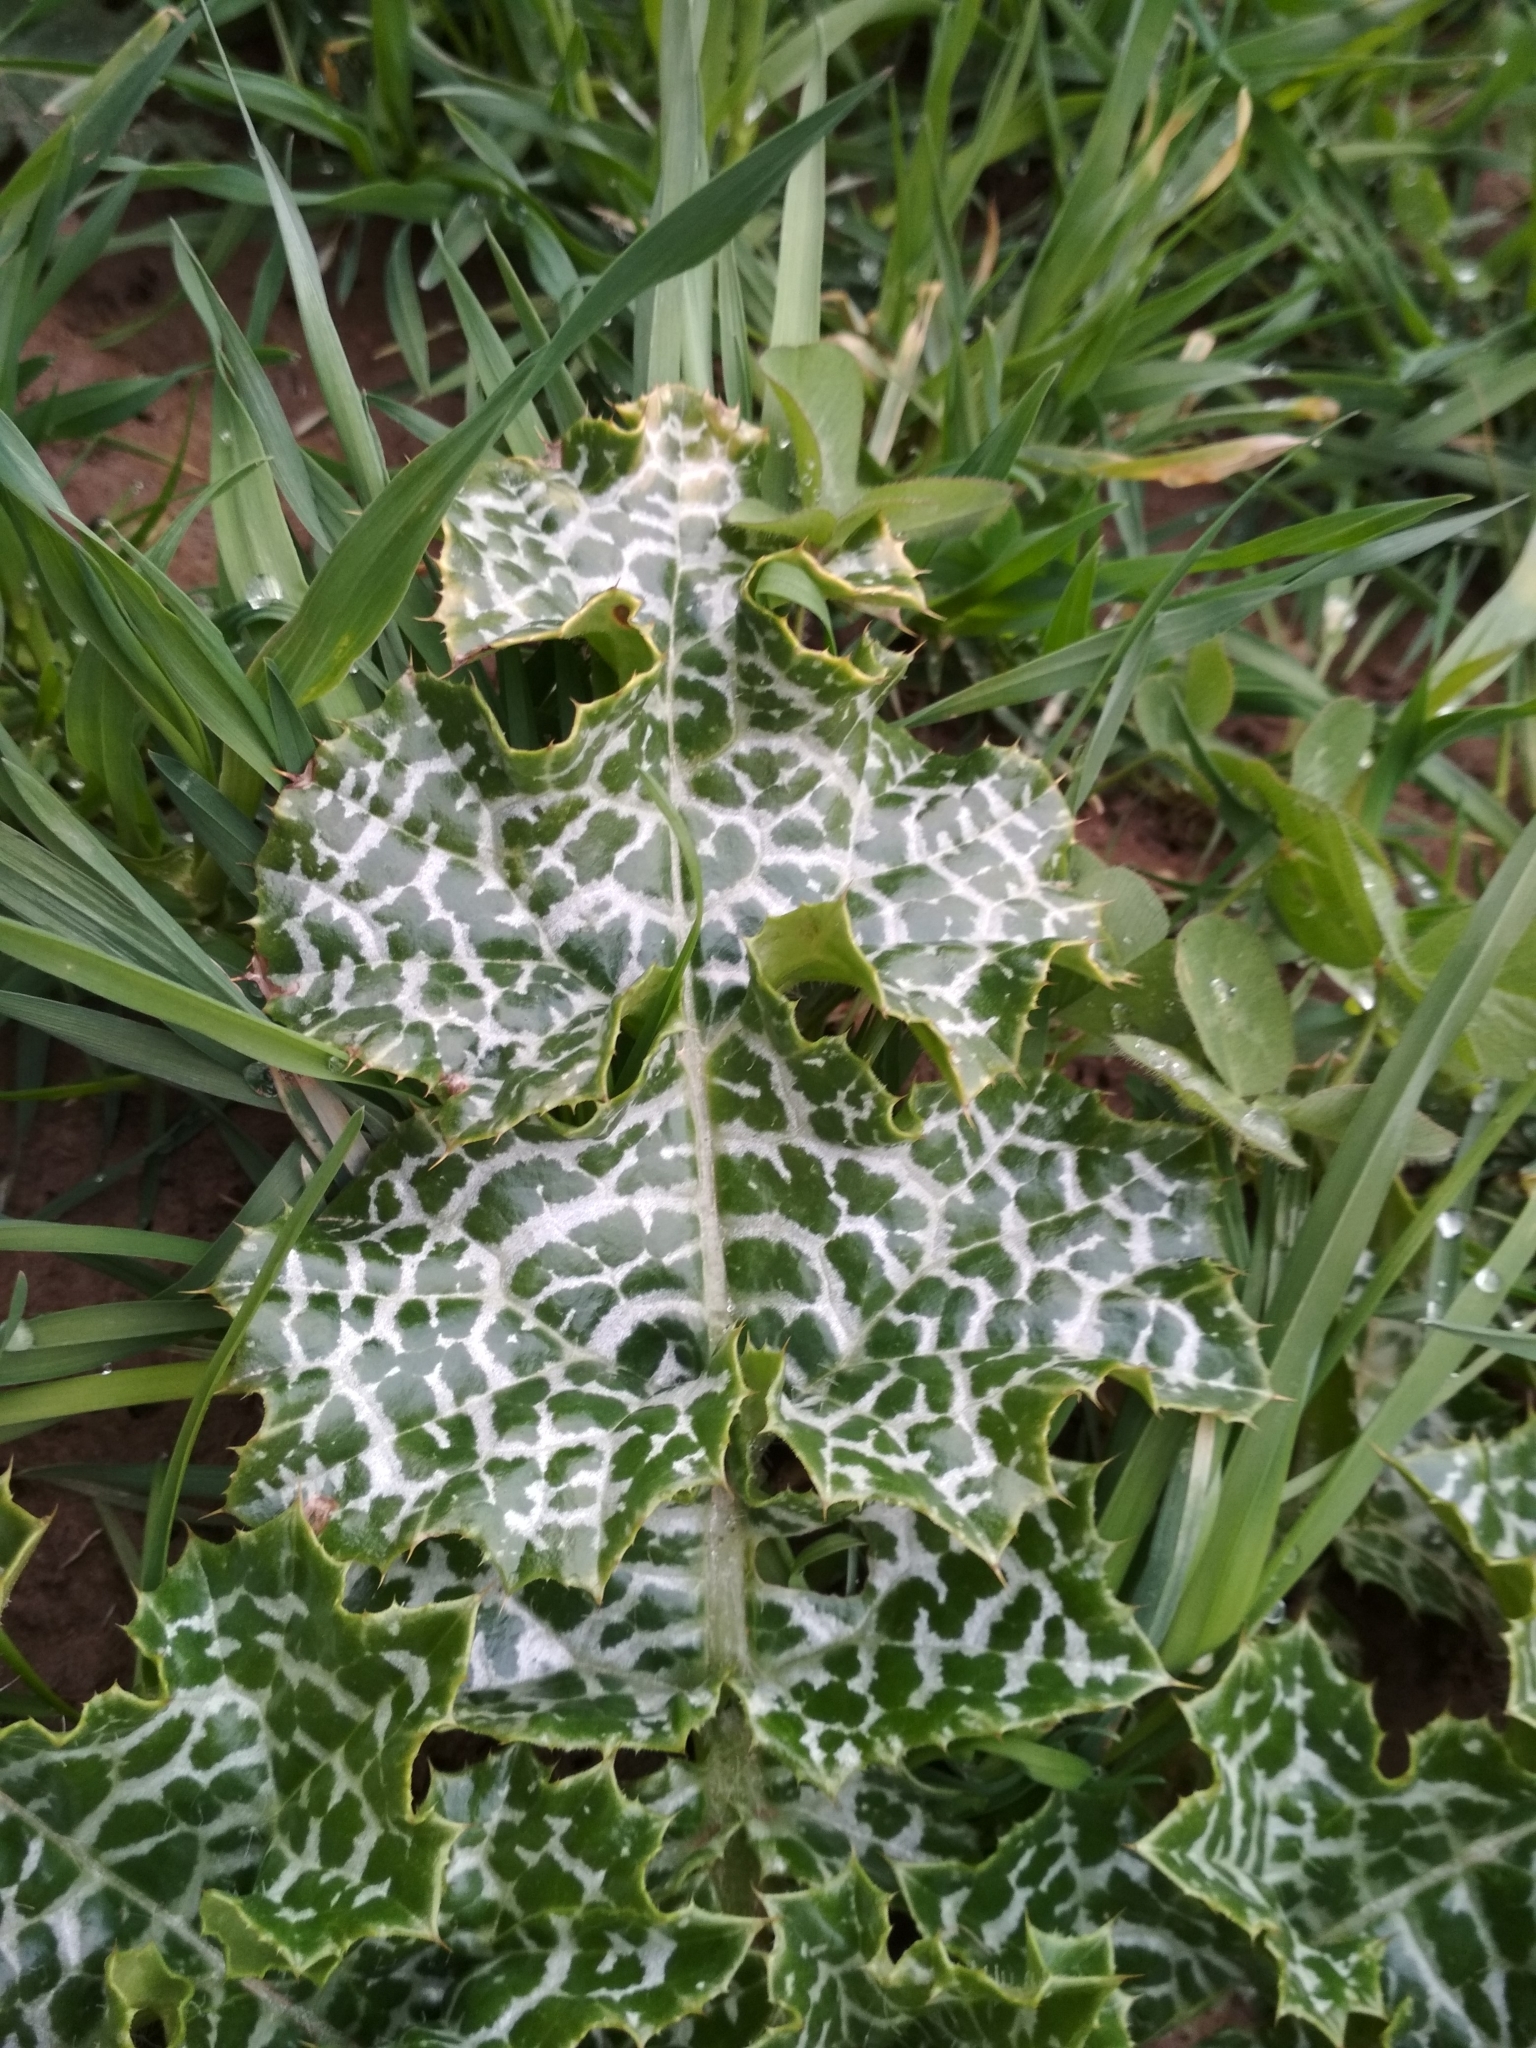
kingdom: Plantae
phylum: Tracheophyta
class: Magnoliopsida
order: Asterales
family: Asteraceae
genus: Silybum
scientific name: Silybum marianum
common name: Milk thistle
